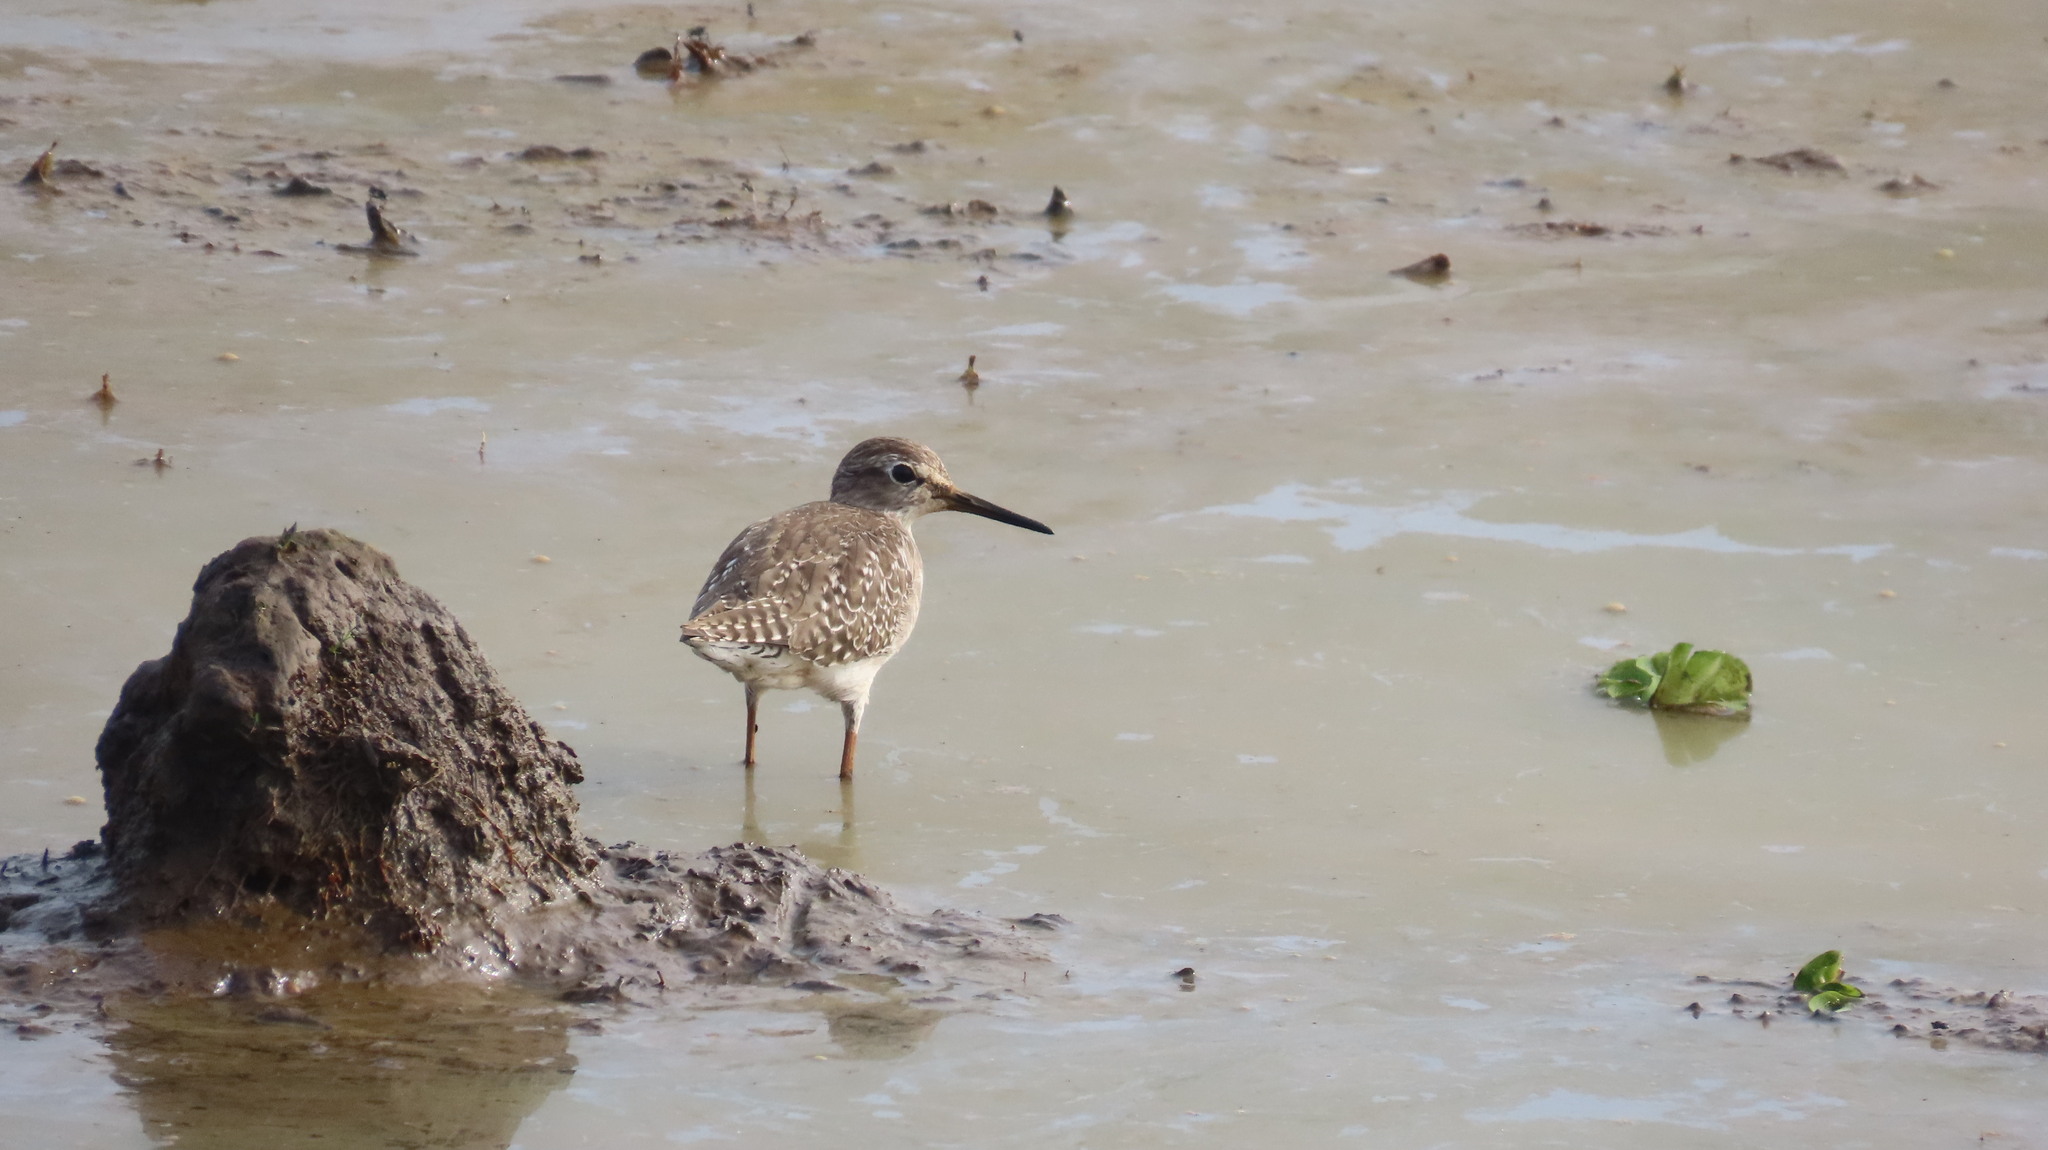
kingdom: Animalia
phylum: Chordata
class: Aves
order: Charadriiformes
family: Scolopacidae
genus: Tringa
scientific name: Tringa glareola
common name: Wood sandpiper
